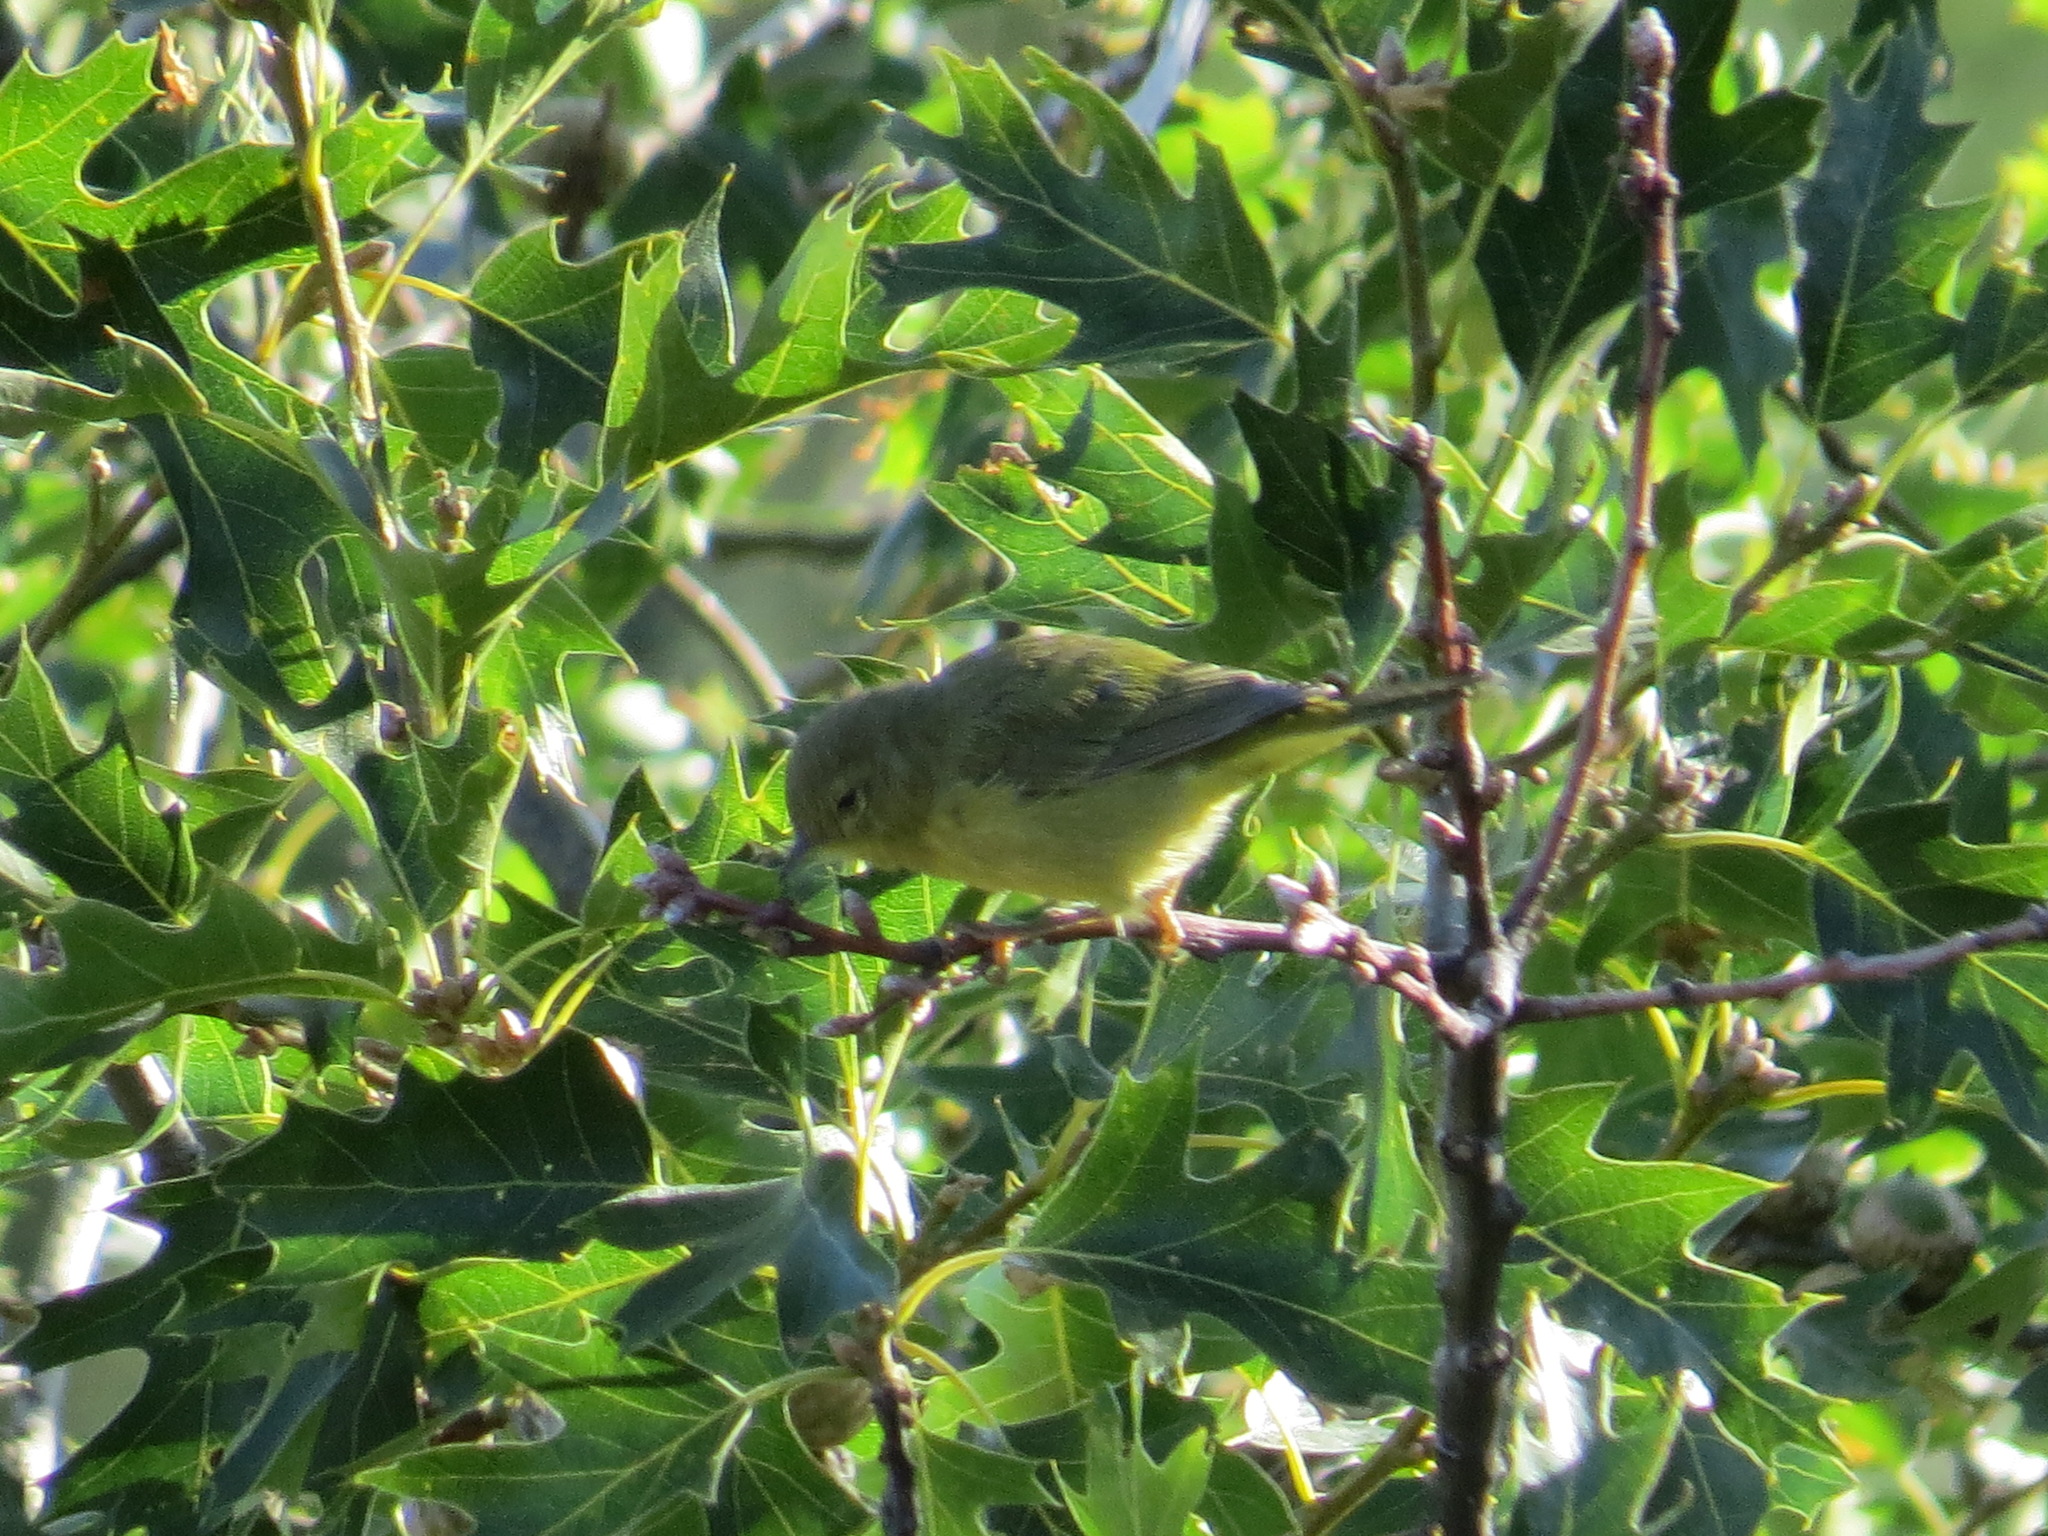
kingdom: Animalia
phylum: Chordata
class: Aves
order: Passeriformes
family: Parulidae
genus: Leiothlypis
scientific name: Leiothlypis celata
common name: Orange-crowned warbler
